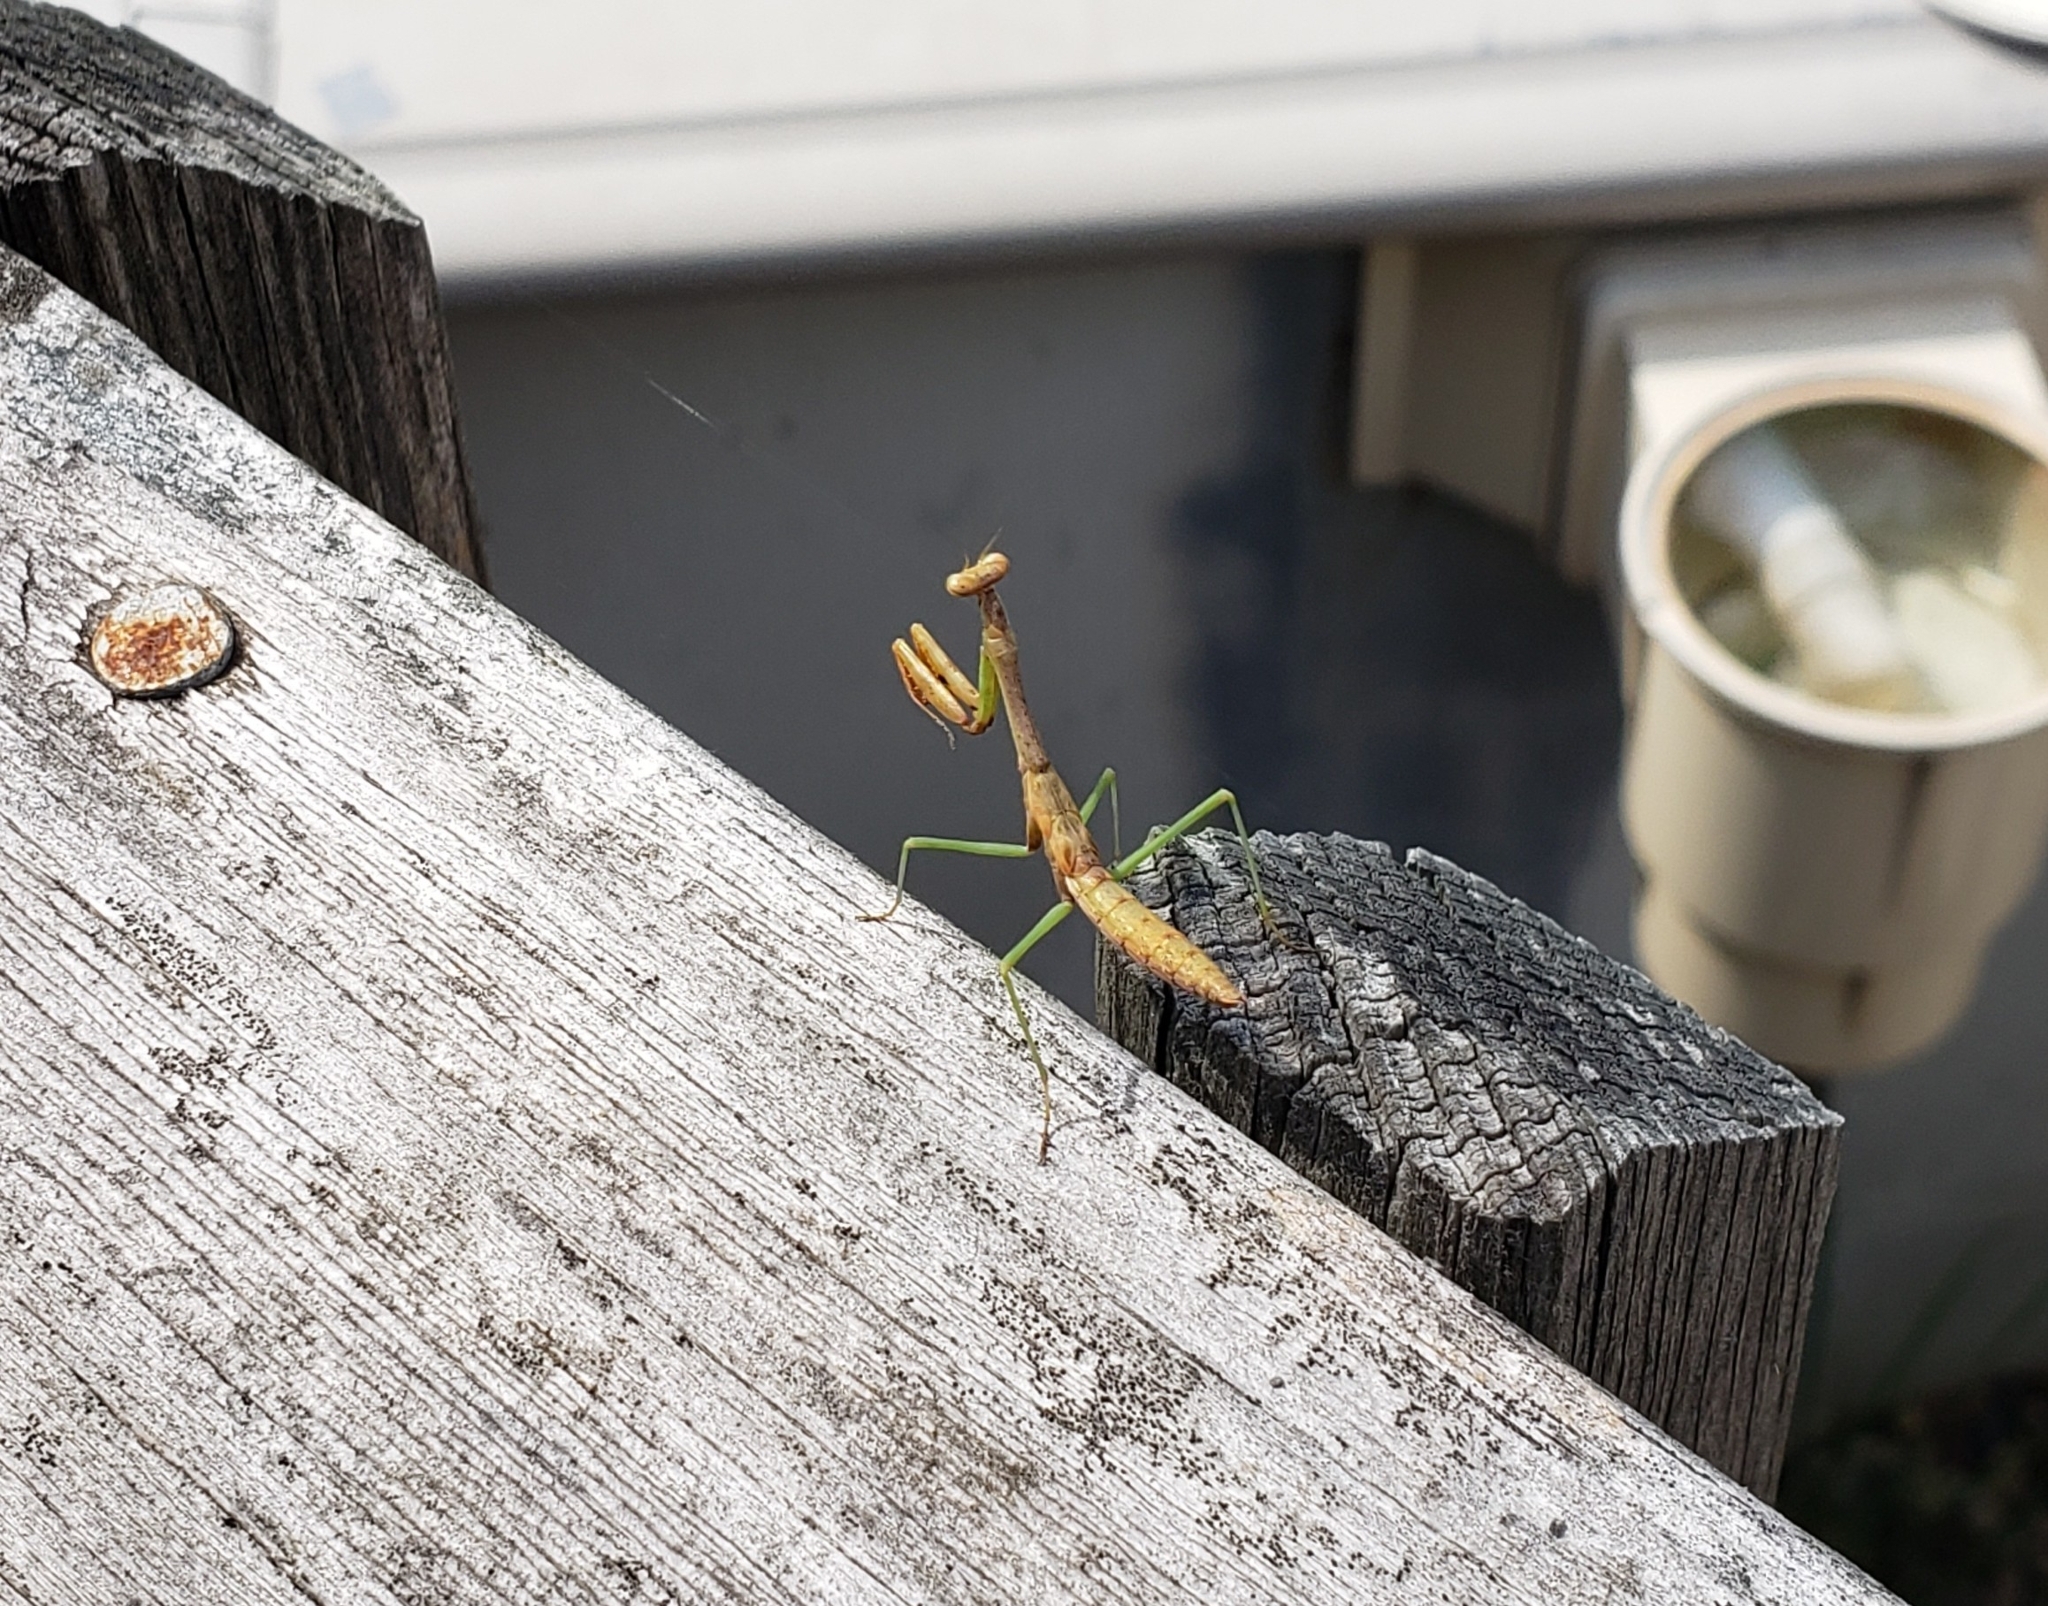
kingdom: Animalia
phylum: Arthropoda
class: Insecta
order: Mantodea
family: Mantidae
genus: Stagmomantis
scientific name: Stagmomantis carolina
